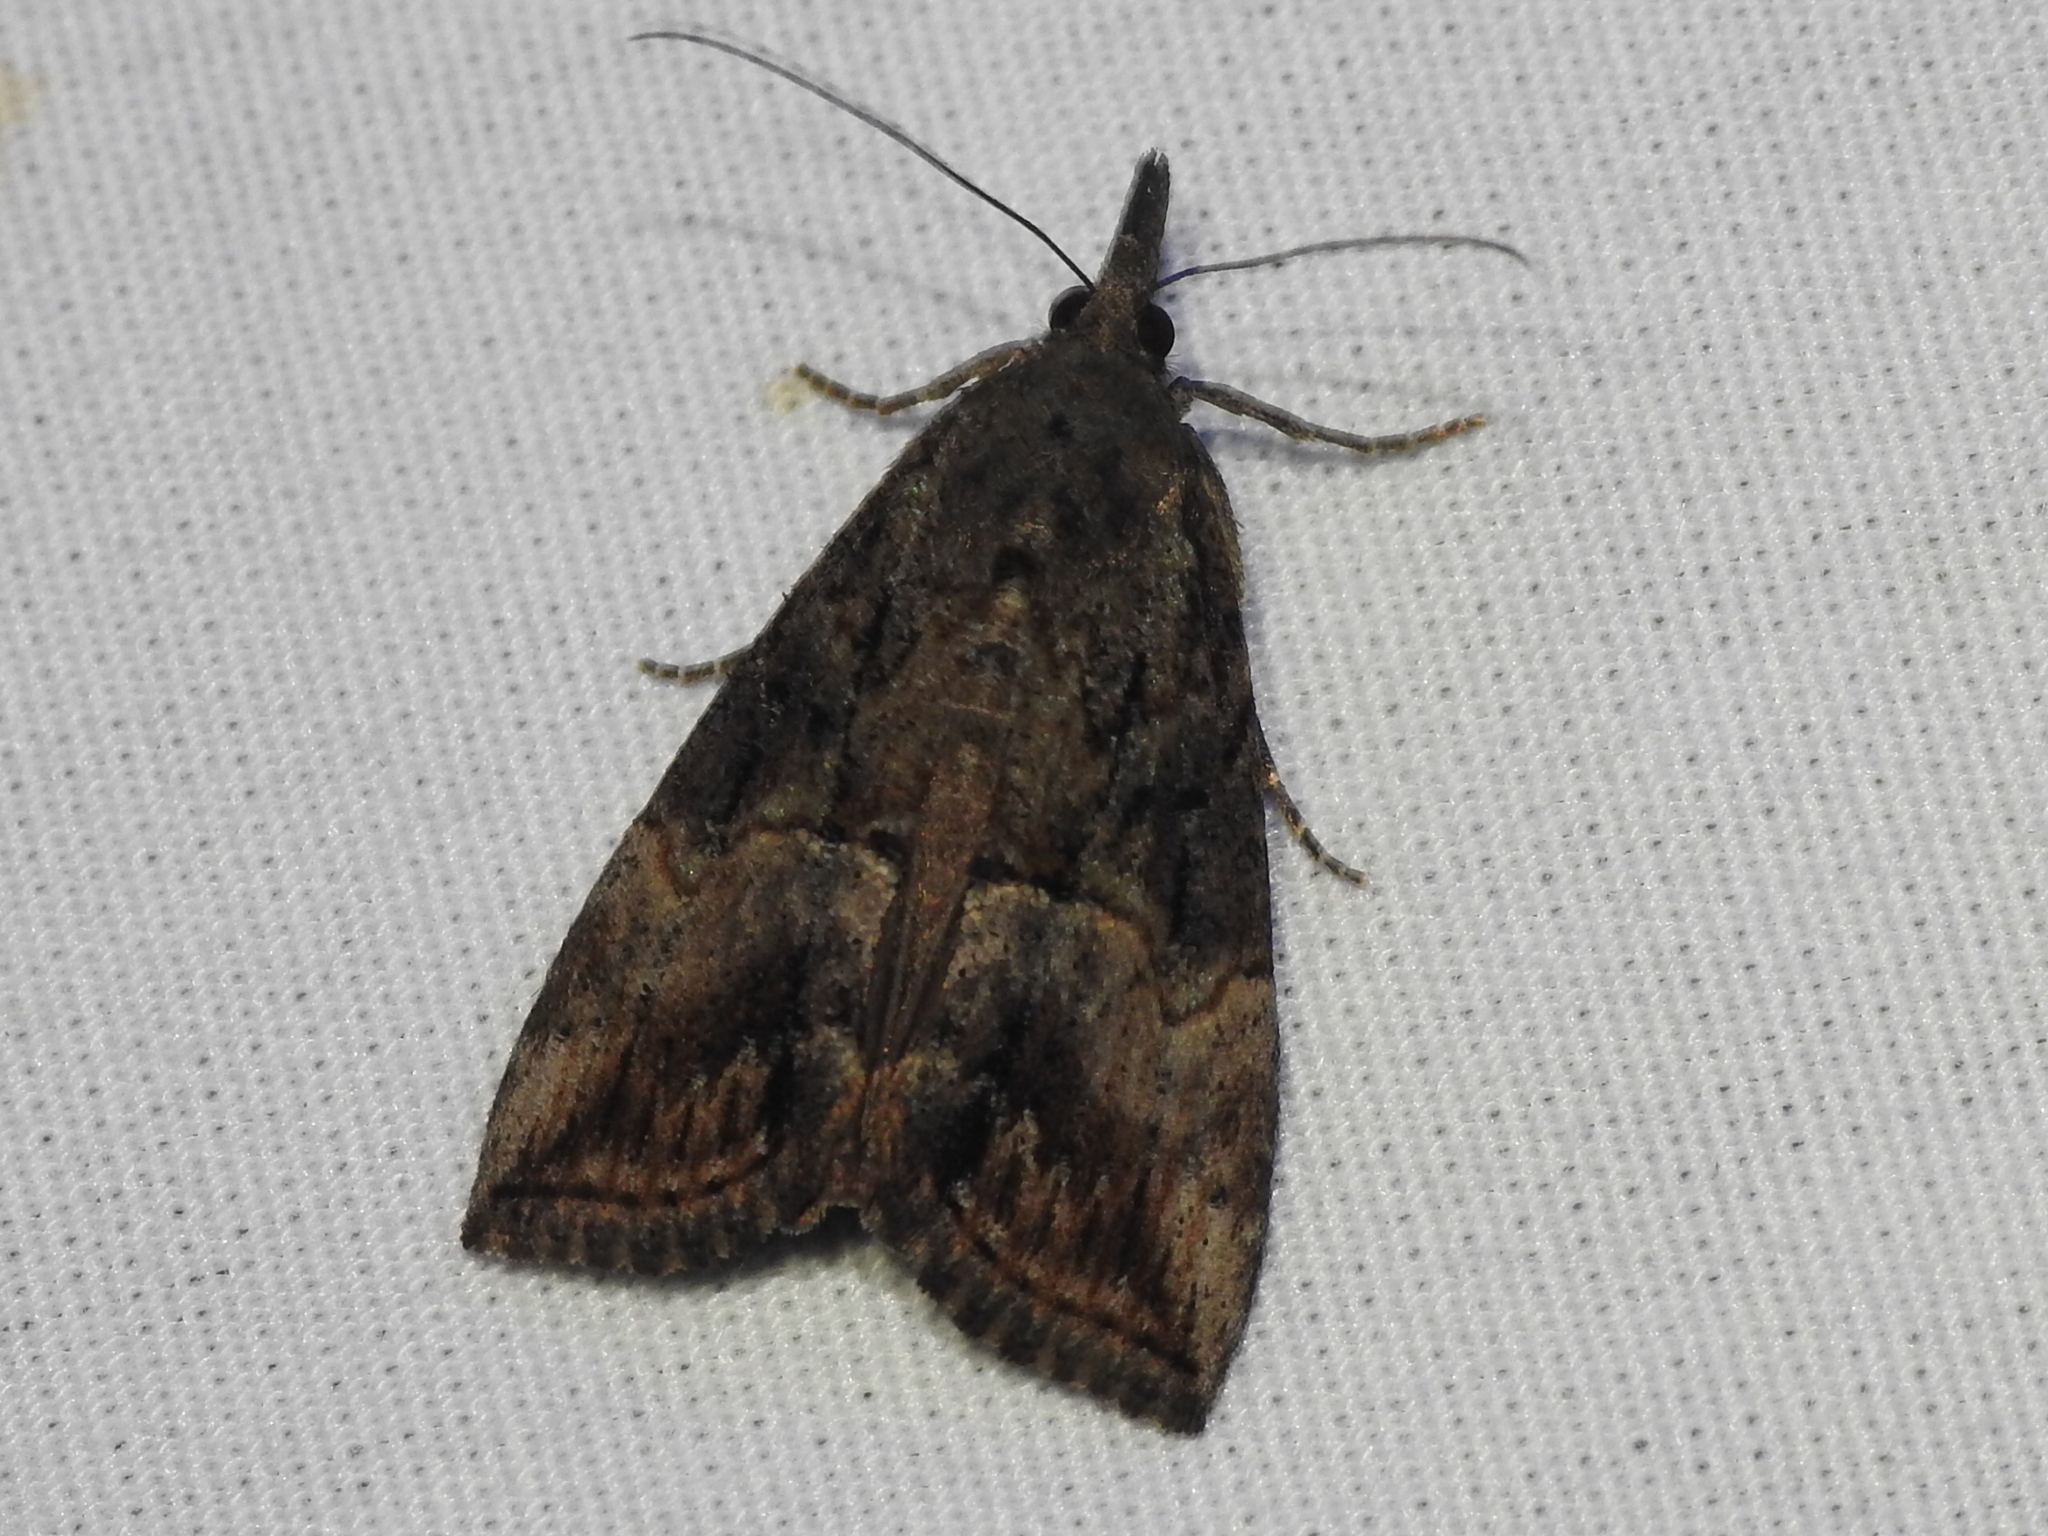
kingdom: Animalia
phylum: Arthropoda
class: Insecta
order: Lepidoptera
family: Erebidae
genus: Hypena
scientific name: Hypena scabra
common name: Green cloverworm
